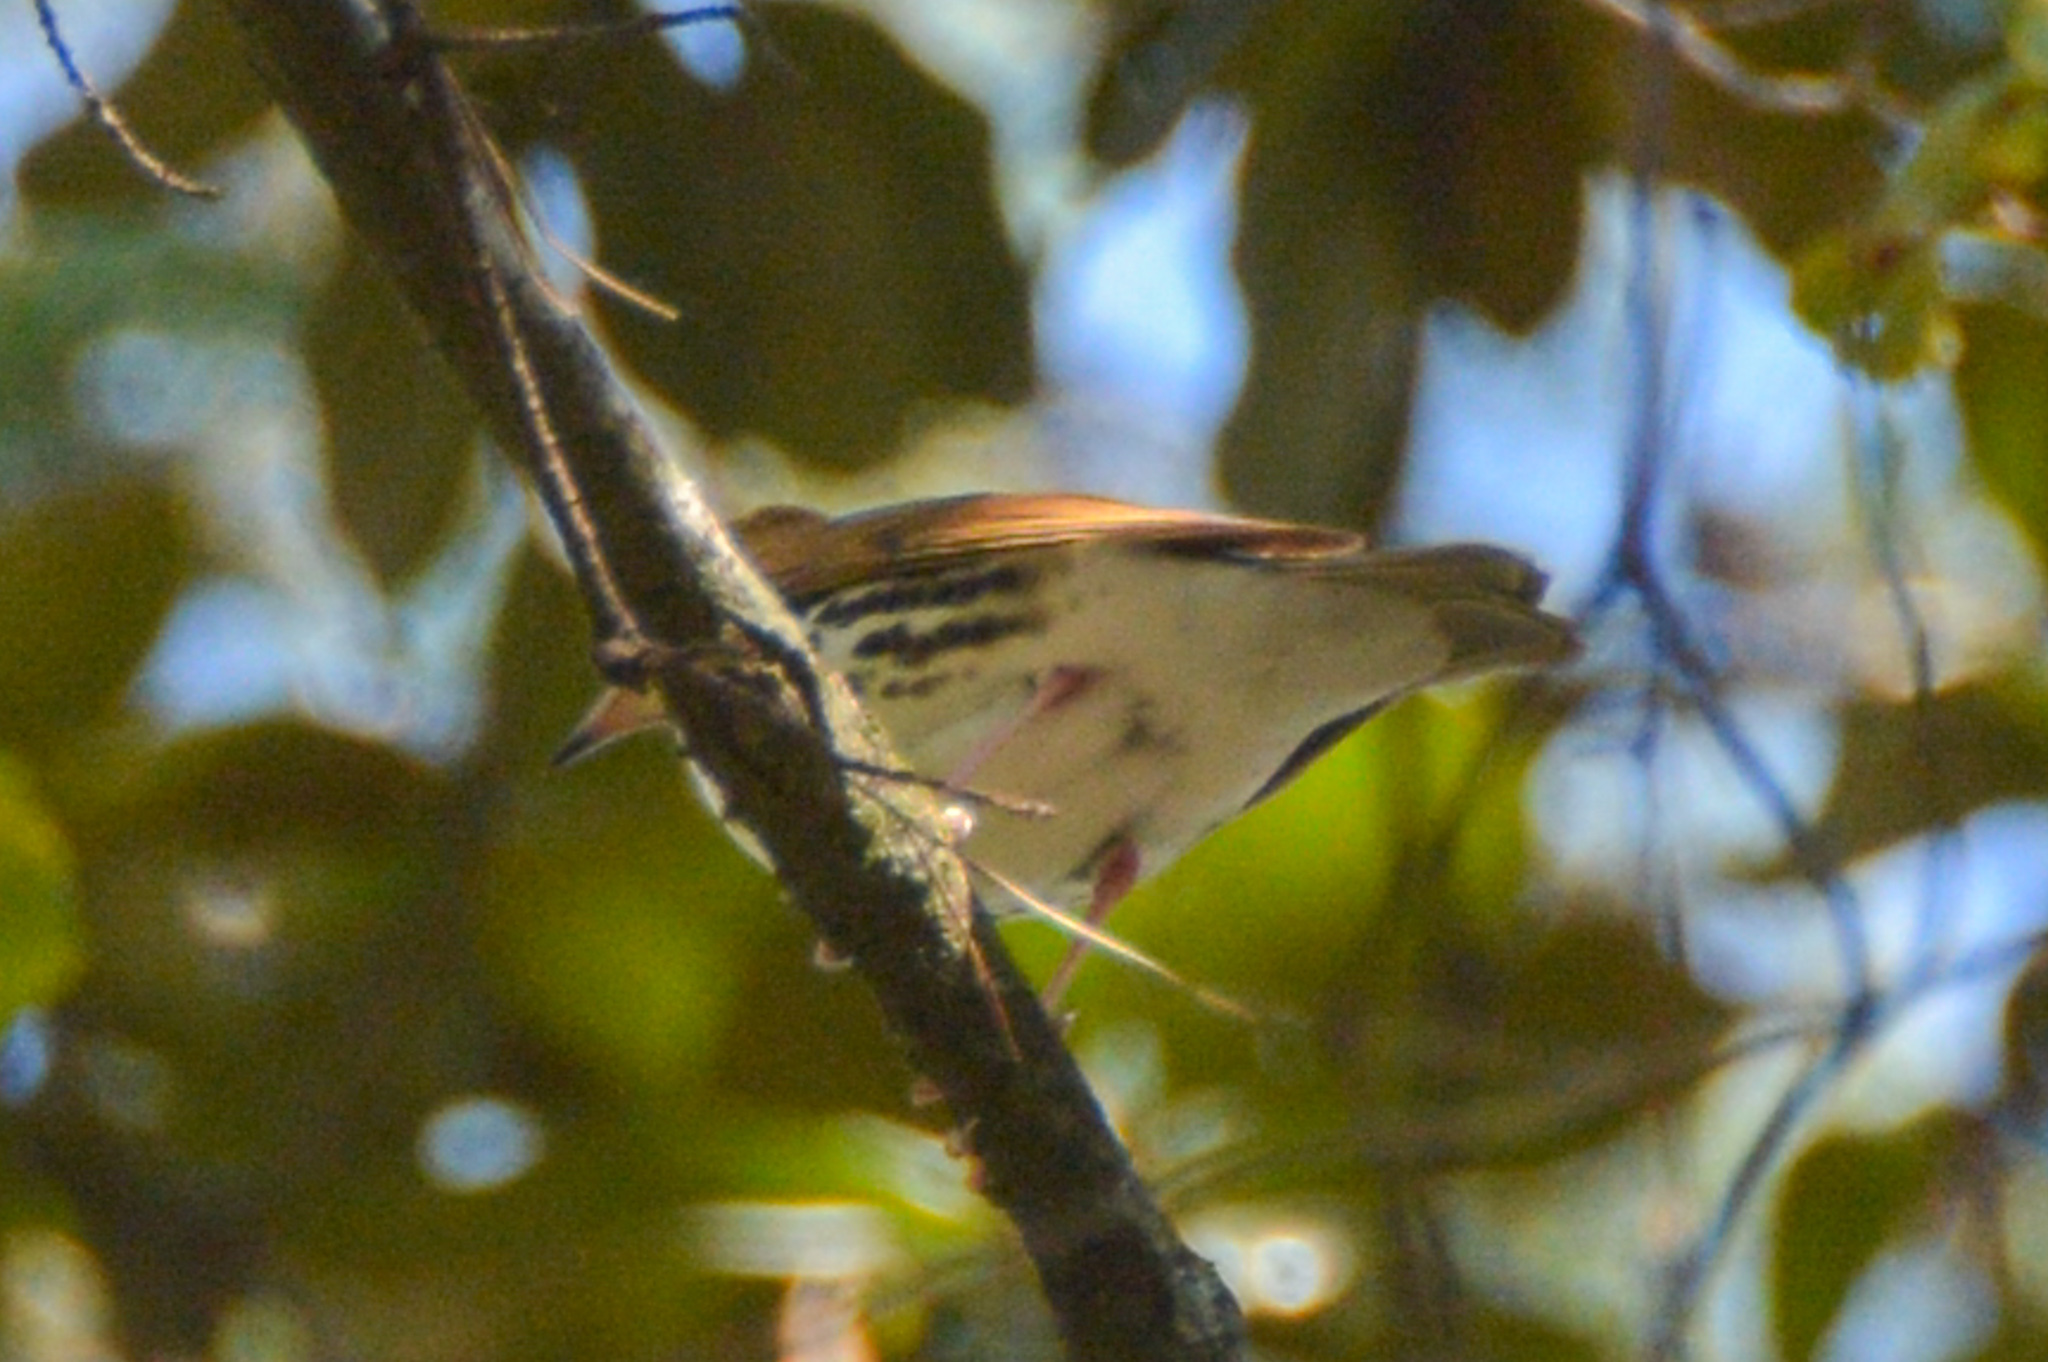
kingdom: Animalia
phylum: Chordata
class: Aves
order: Passeriformes
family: Turdidae
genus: Hylocichla
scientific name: Hylocichla mustelina
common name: Wood thrush
